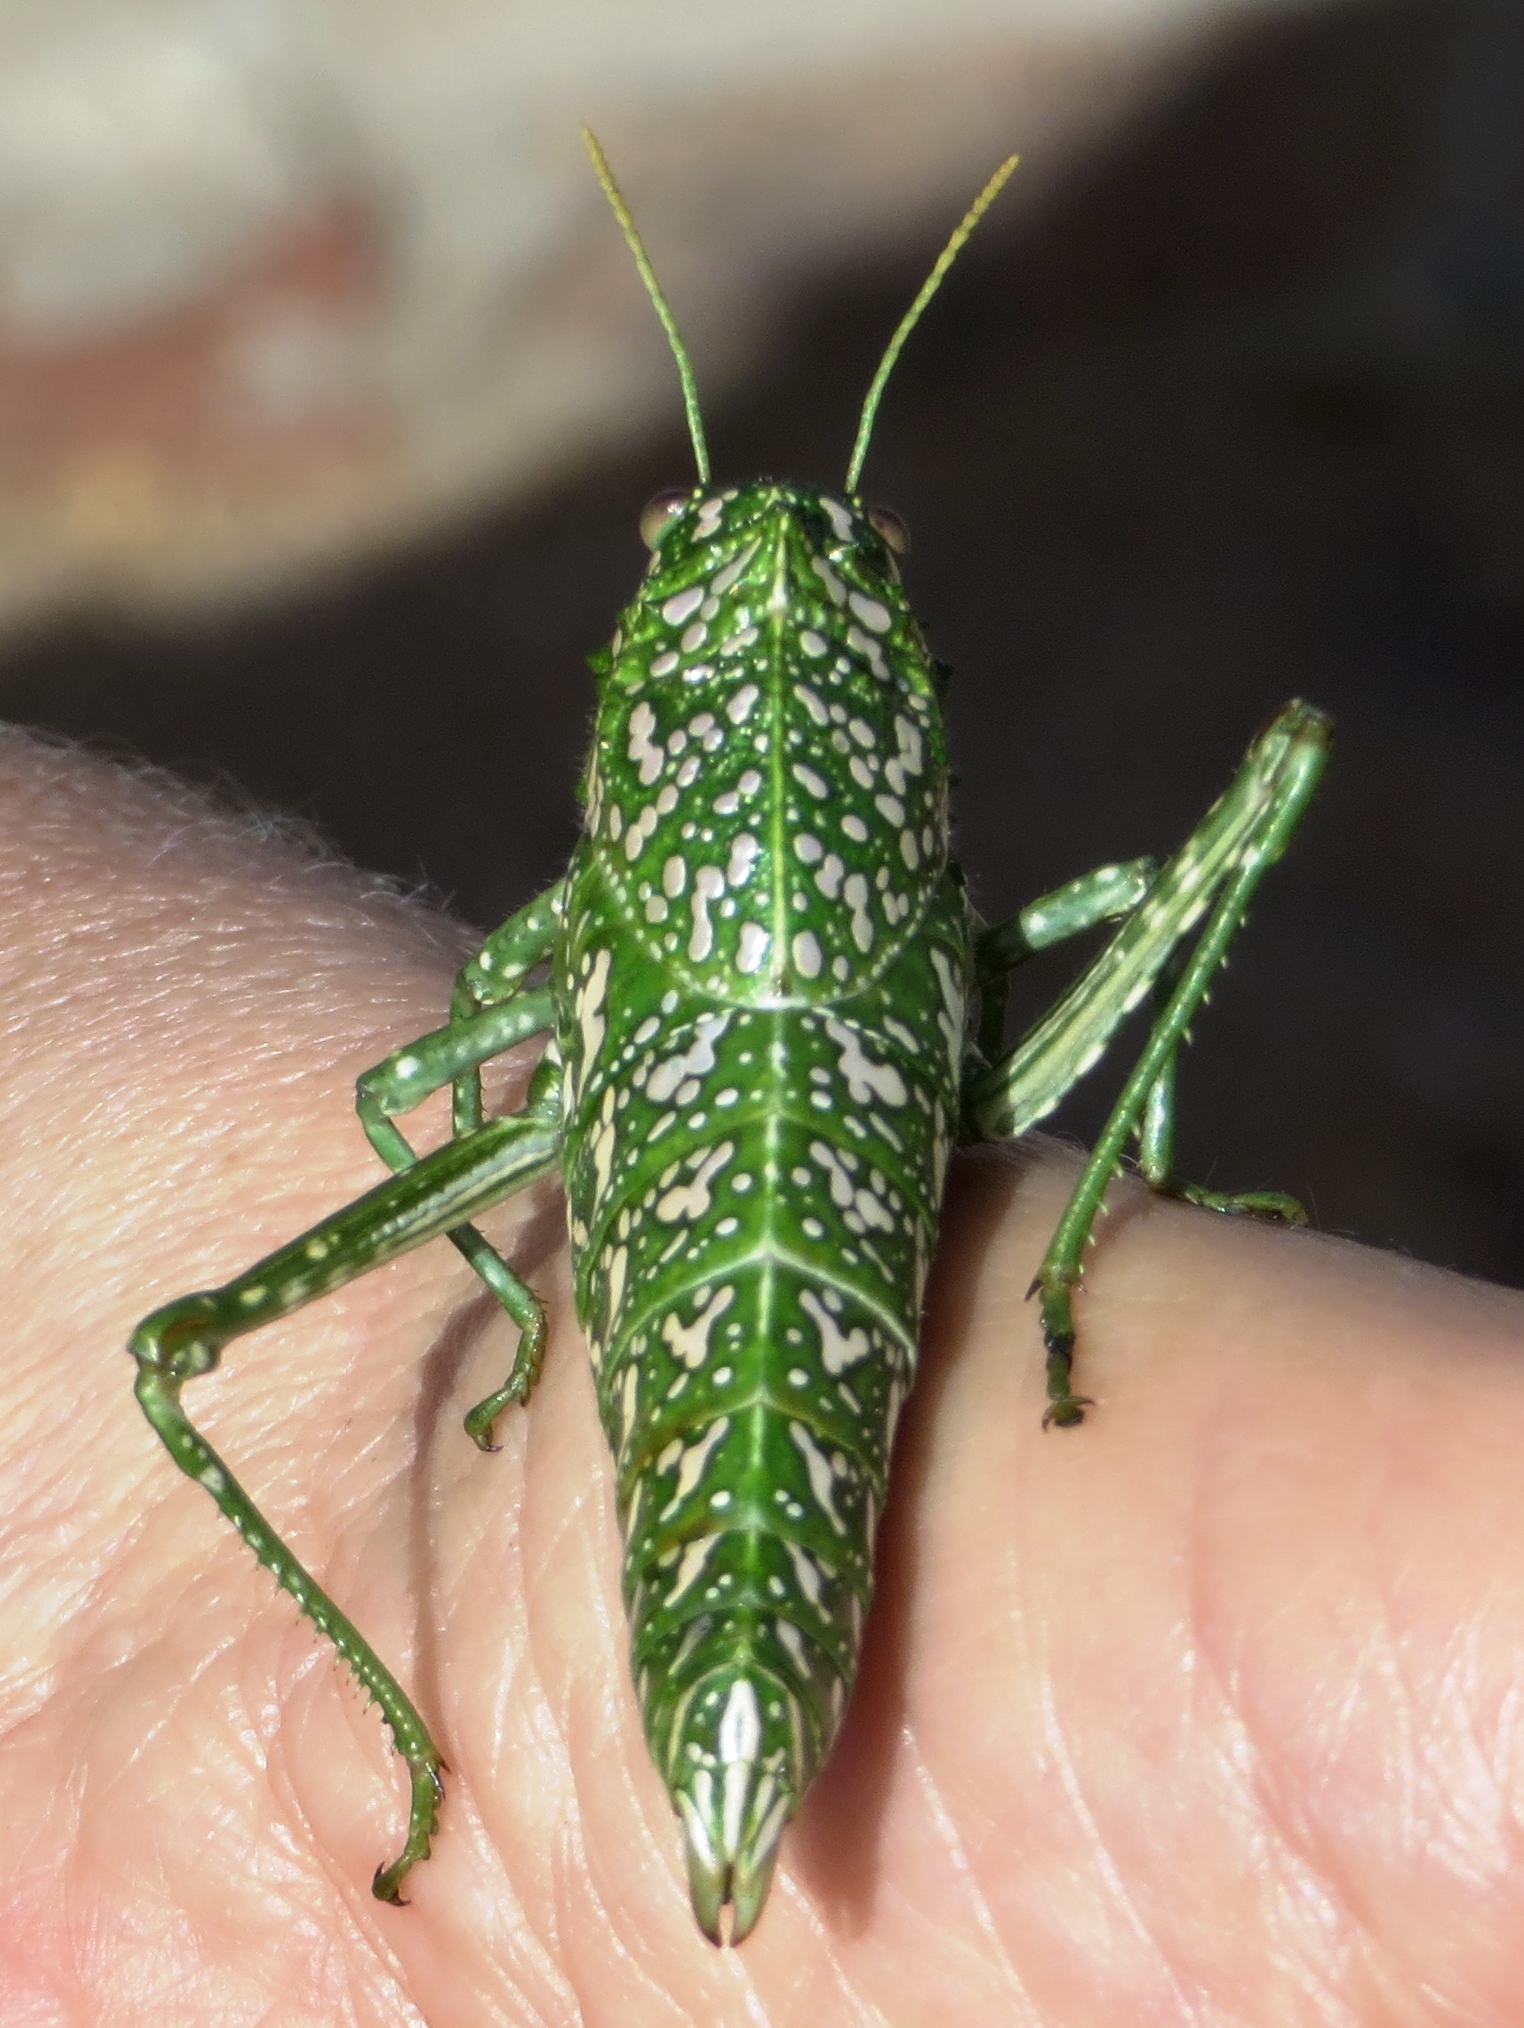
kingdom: Animalia
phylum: Arthropoda
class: Insecta
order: Orthoptera
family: Pneumoridae
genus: Physemacris
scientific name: Physemacris variolosa
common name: Silver spotted bladder grasshopper
